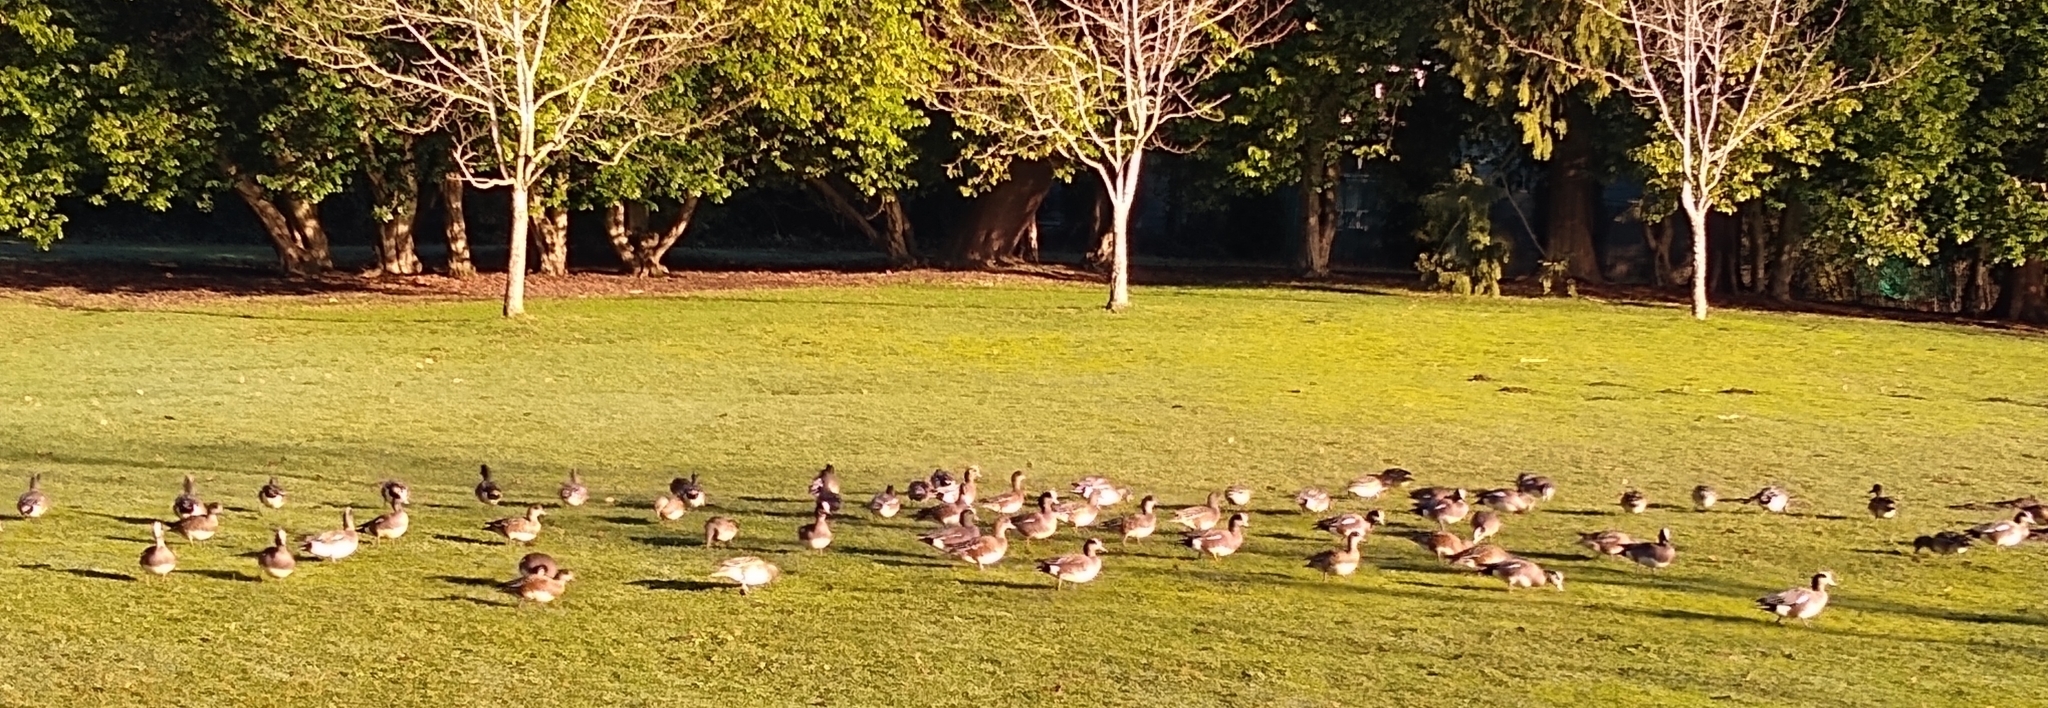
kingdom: Animalia
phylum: Chordata
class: Aves
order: Anseriformes
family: Anatidae
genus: Mareca
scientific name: Mareca americana
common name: American wigeon
